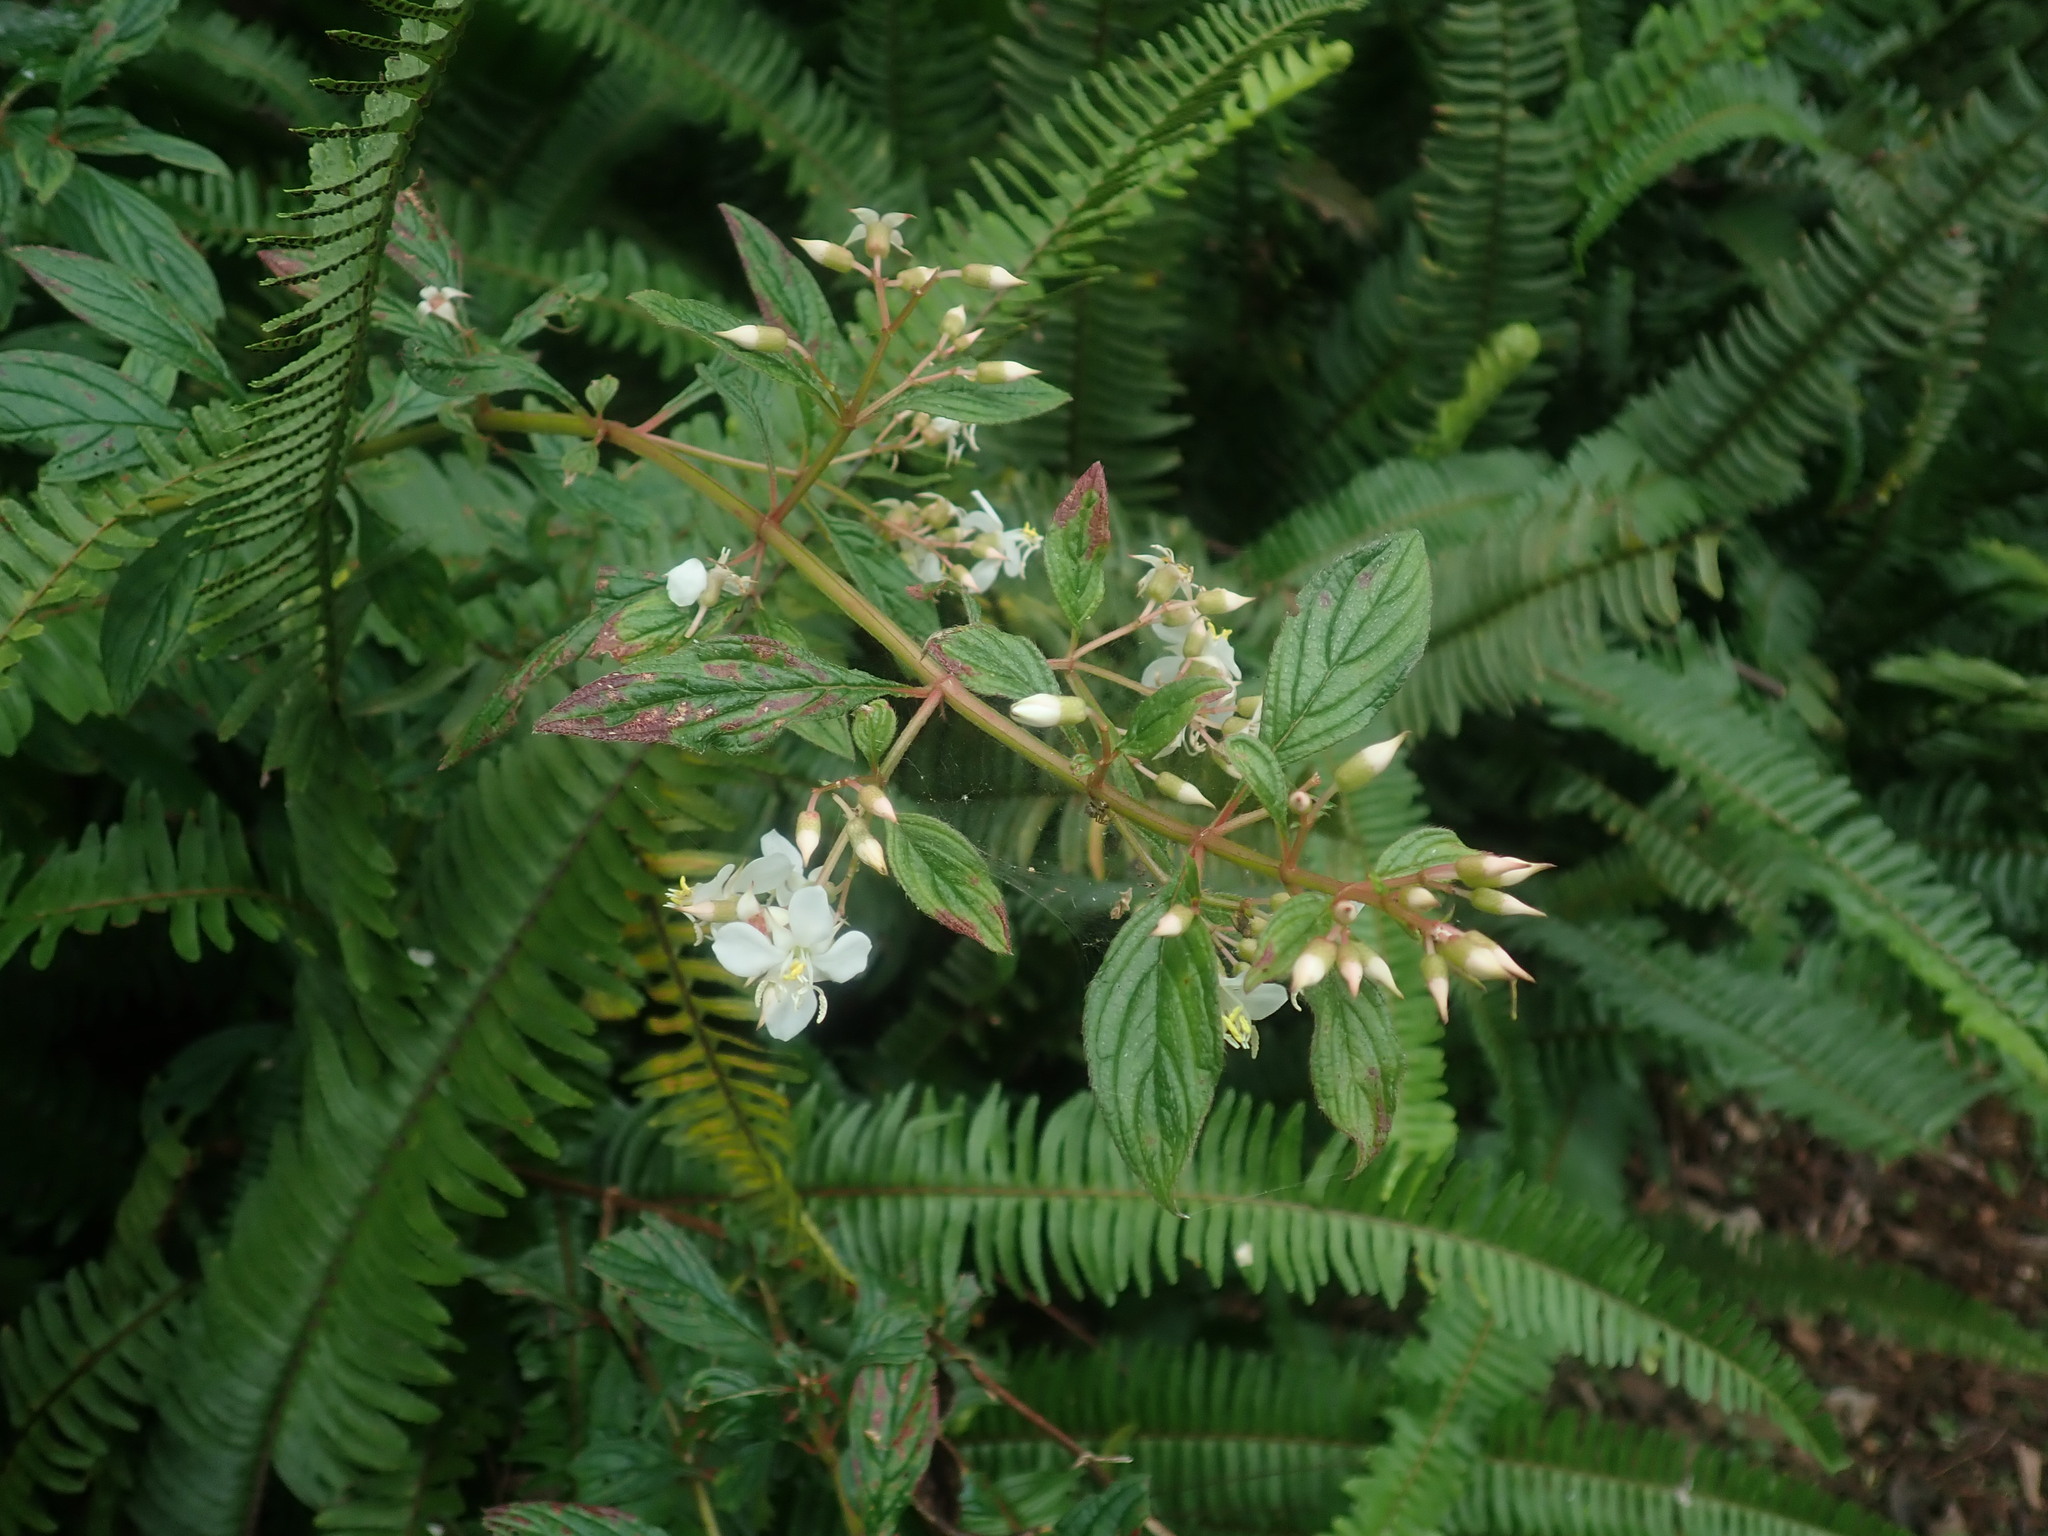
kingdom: Plantae
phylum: Tracheophyta
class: Magnoliopsida
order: Myrtales
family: Melastomataceae
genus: Heterocentron
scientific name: Heterocentron subtriplinervium
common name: Pearl flower
